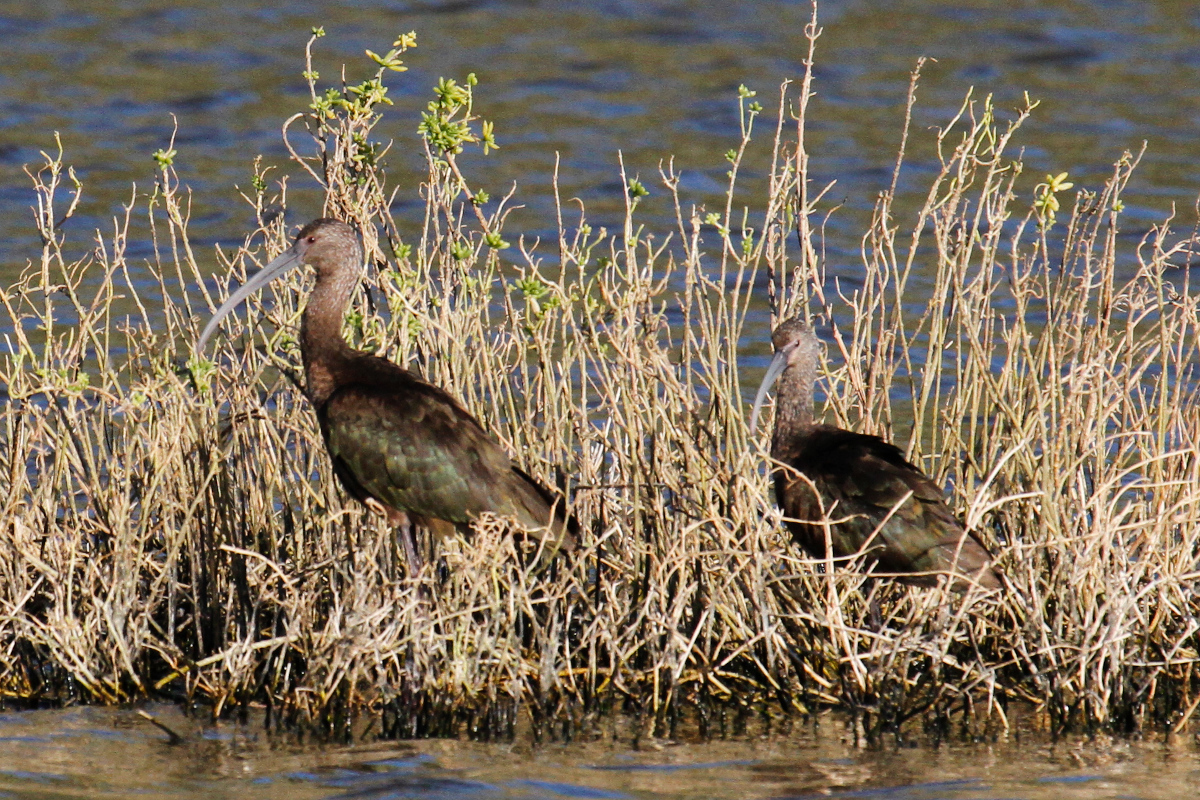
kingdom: Animalia
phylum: Chordata
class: Aves
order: Pelecaniformes
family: Threskiornithidae
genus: Plegadis
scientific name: Plegadis chihi
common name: White-faced ibis
